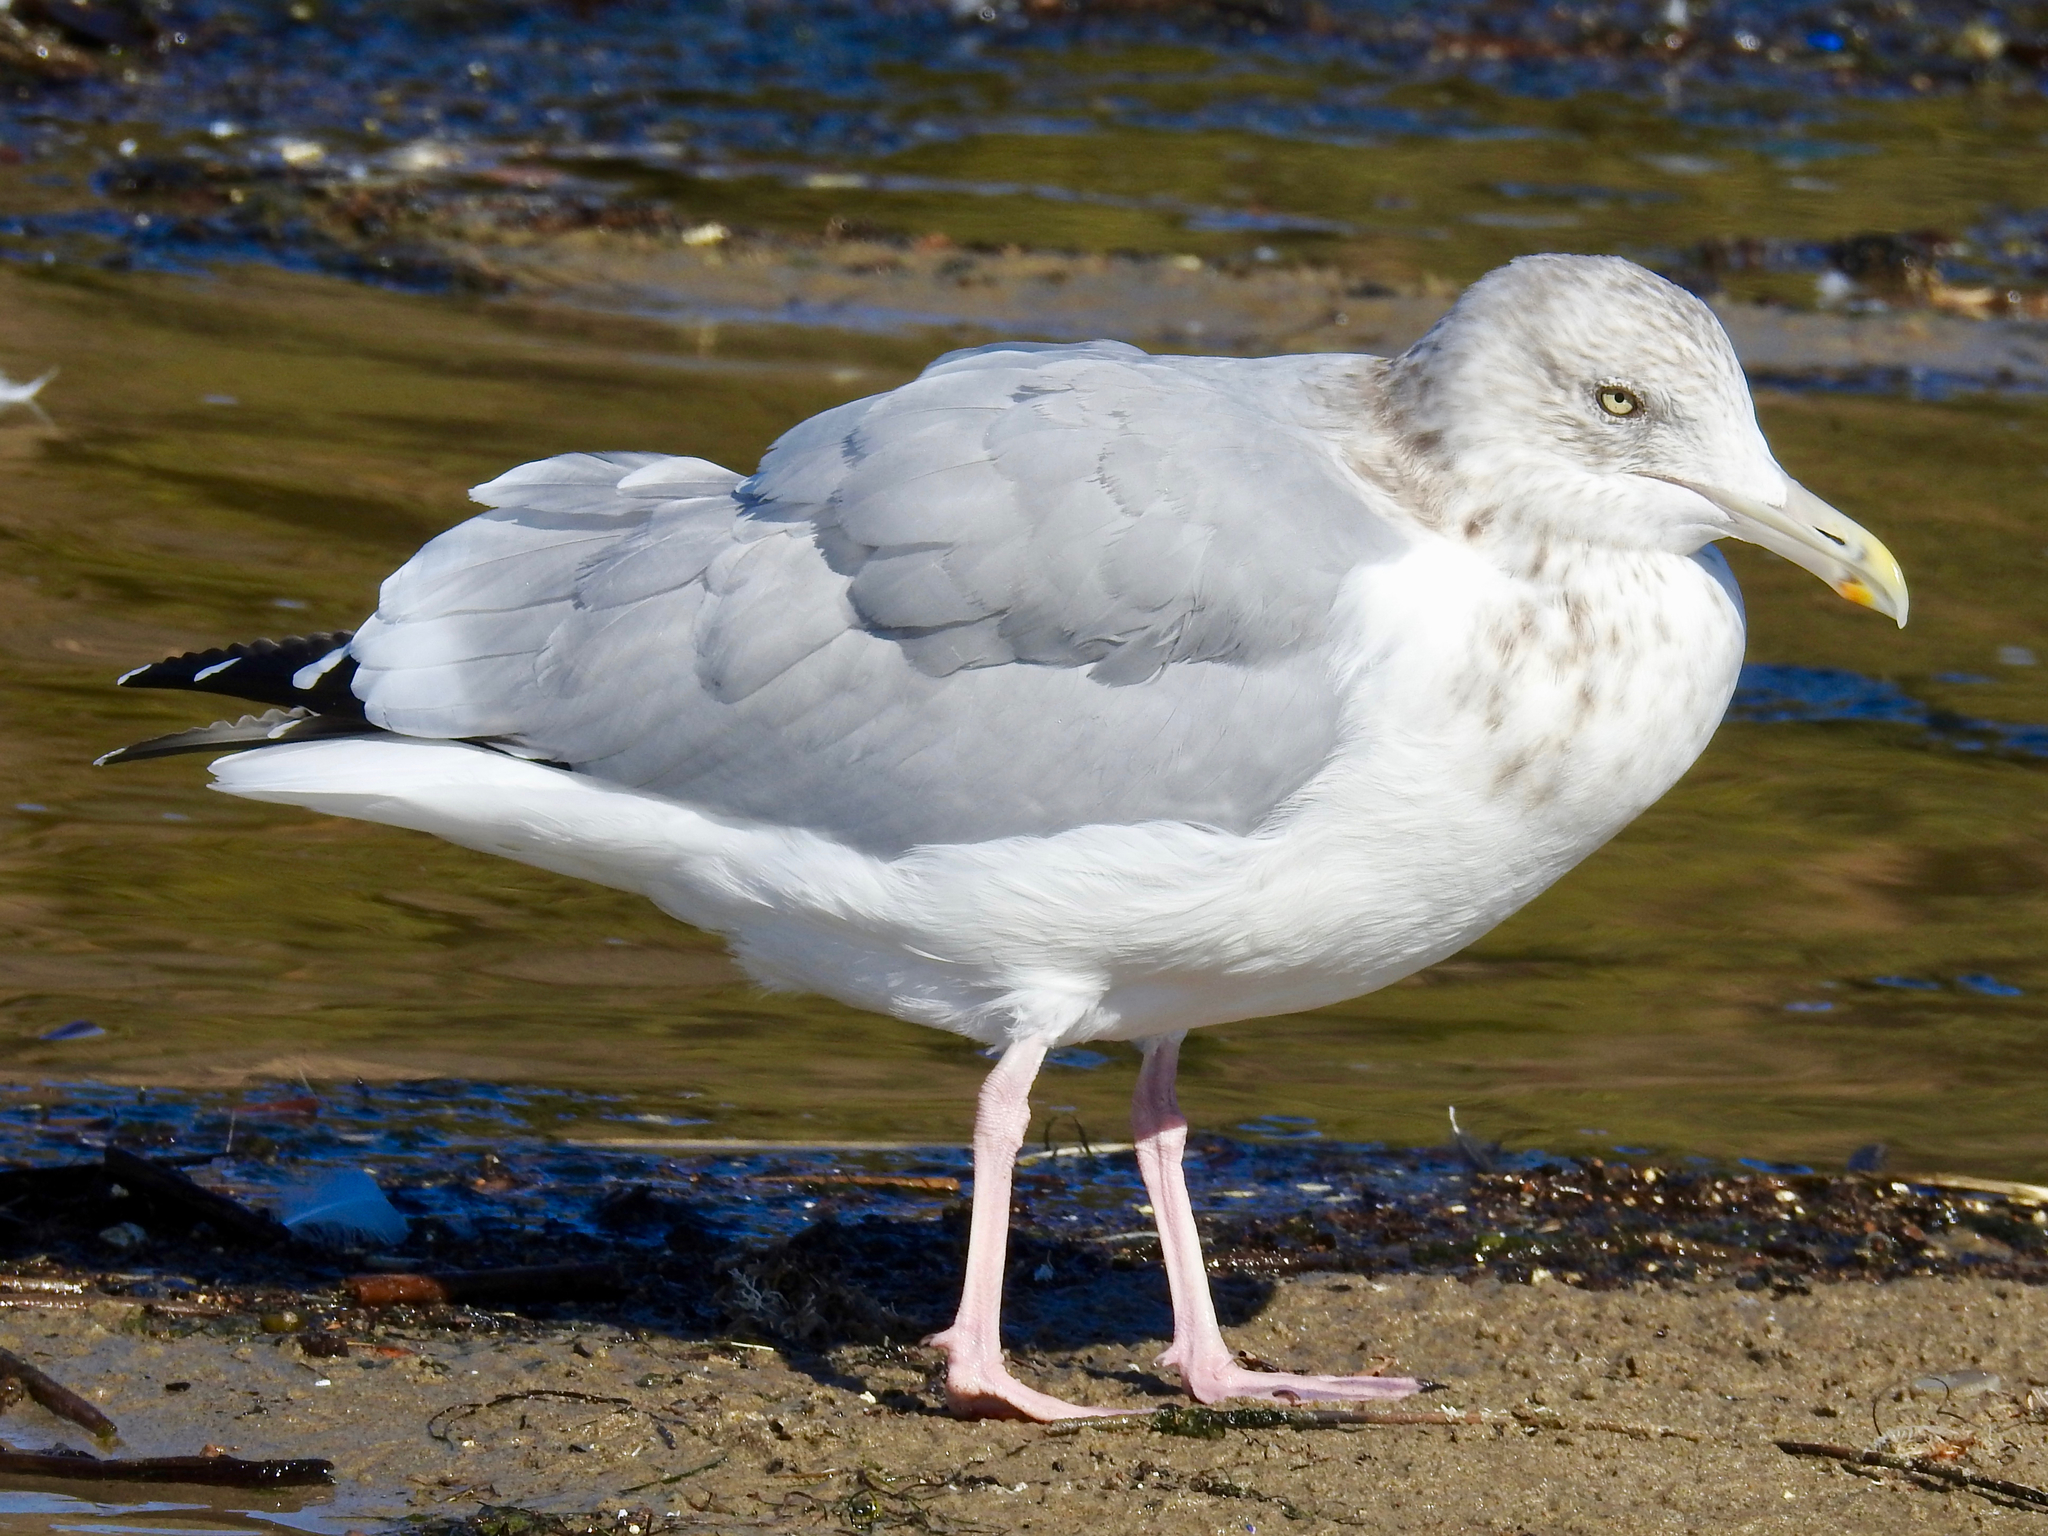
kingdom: Animalia
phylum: Chordata
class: Aves
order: Charadriiformes
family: Laridae
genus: Larus
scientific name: Larus argentatus
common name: Herring gull
